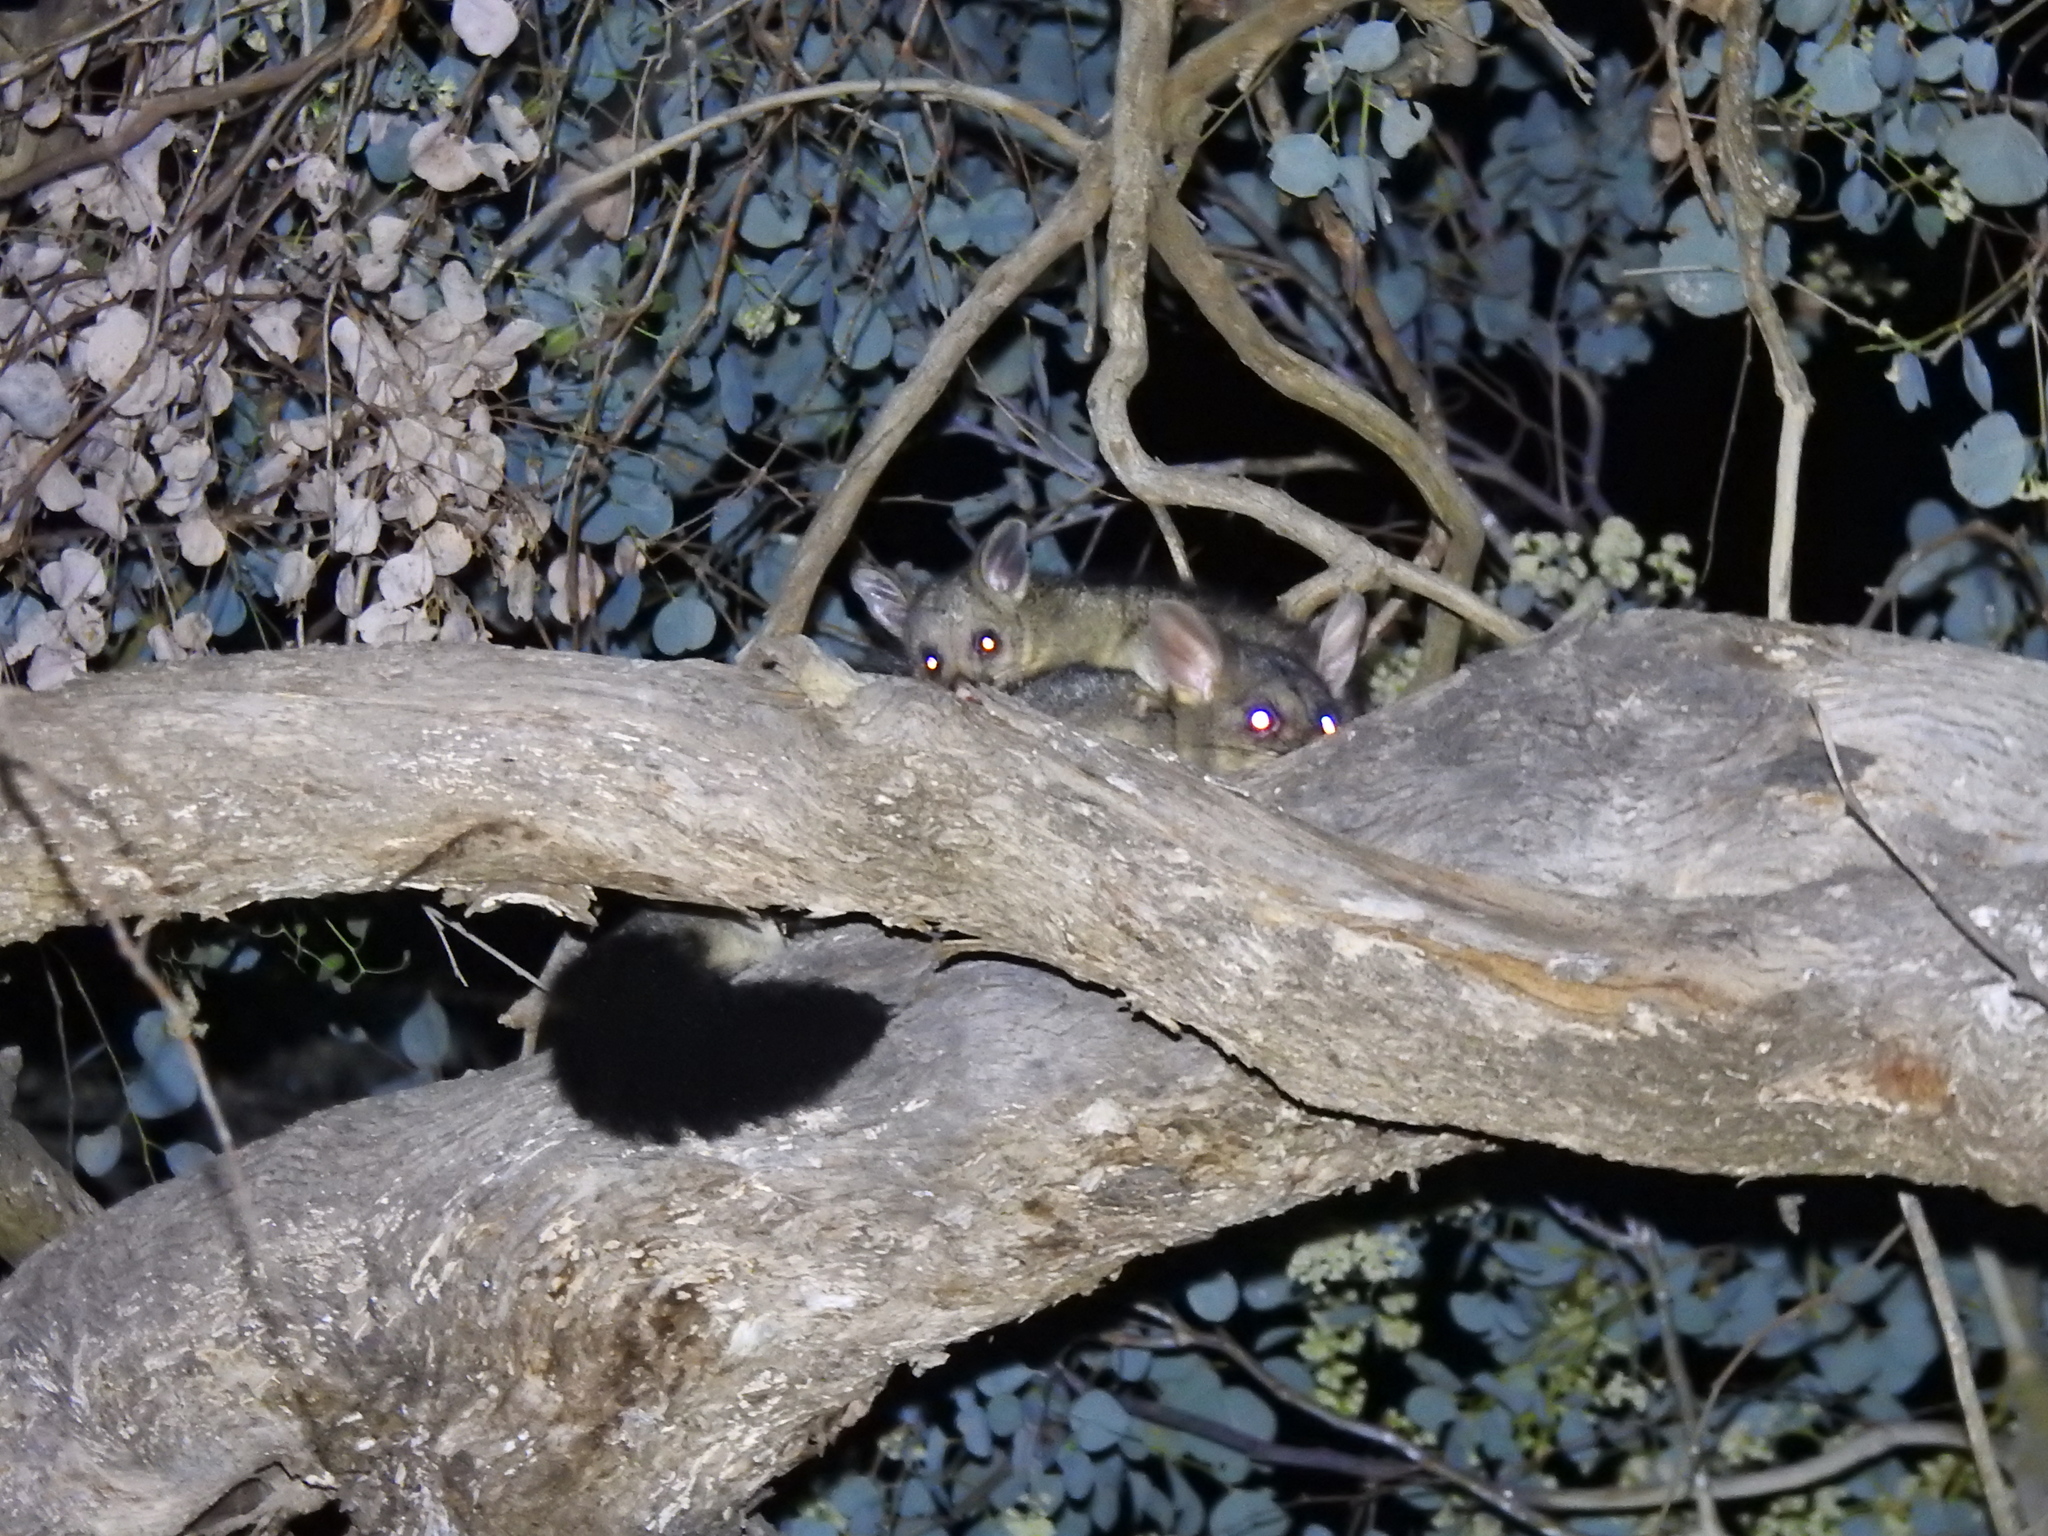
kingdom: Animalia
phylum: Chordata
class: Mammalia
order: Diprotodontia
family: Phalangeridae
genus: Trichosurus
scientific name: Trichosurus vulpecula
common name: Common brushtail
